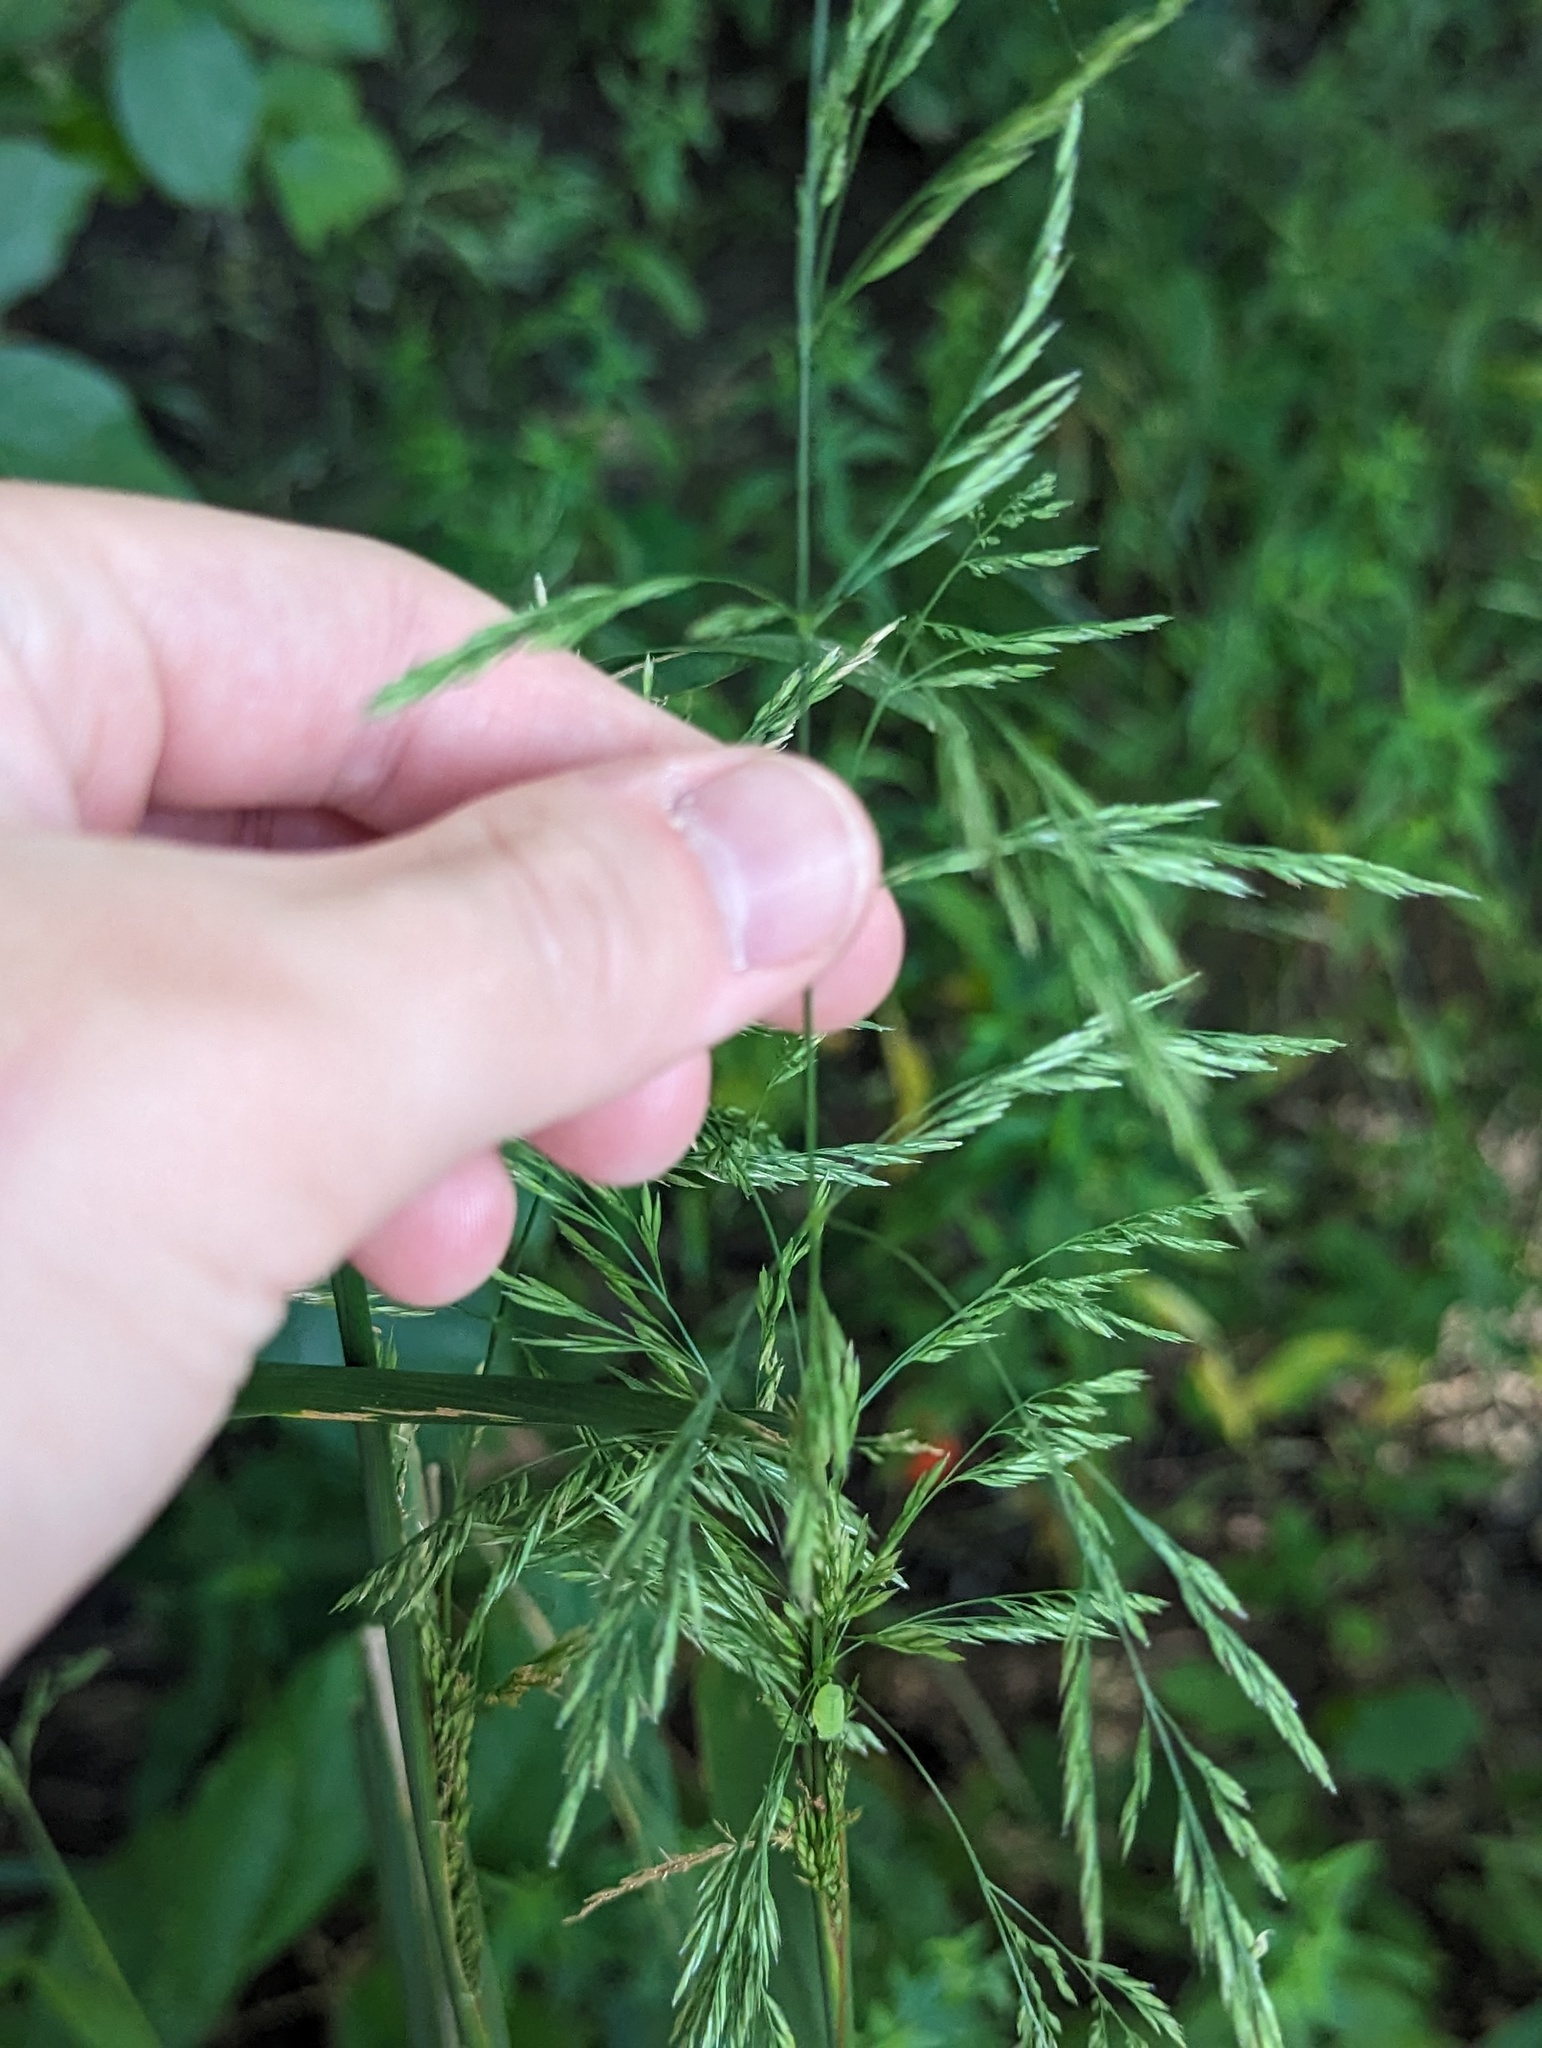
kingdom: Plantae
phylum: Tracheophyta
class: Liliopsida
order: Poales
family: Poaceae
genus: Cinna
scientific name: Cinna arundinacea
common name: Stout woodreed
